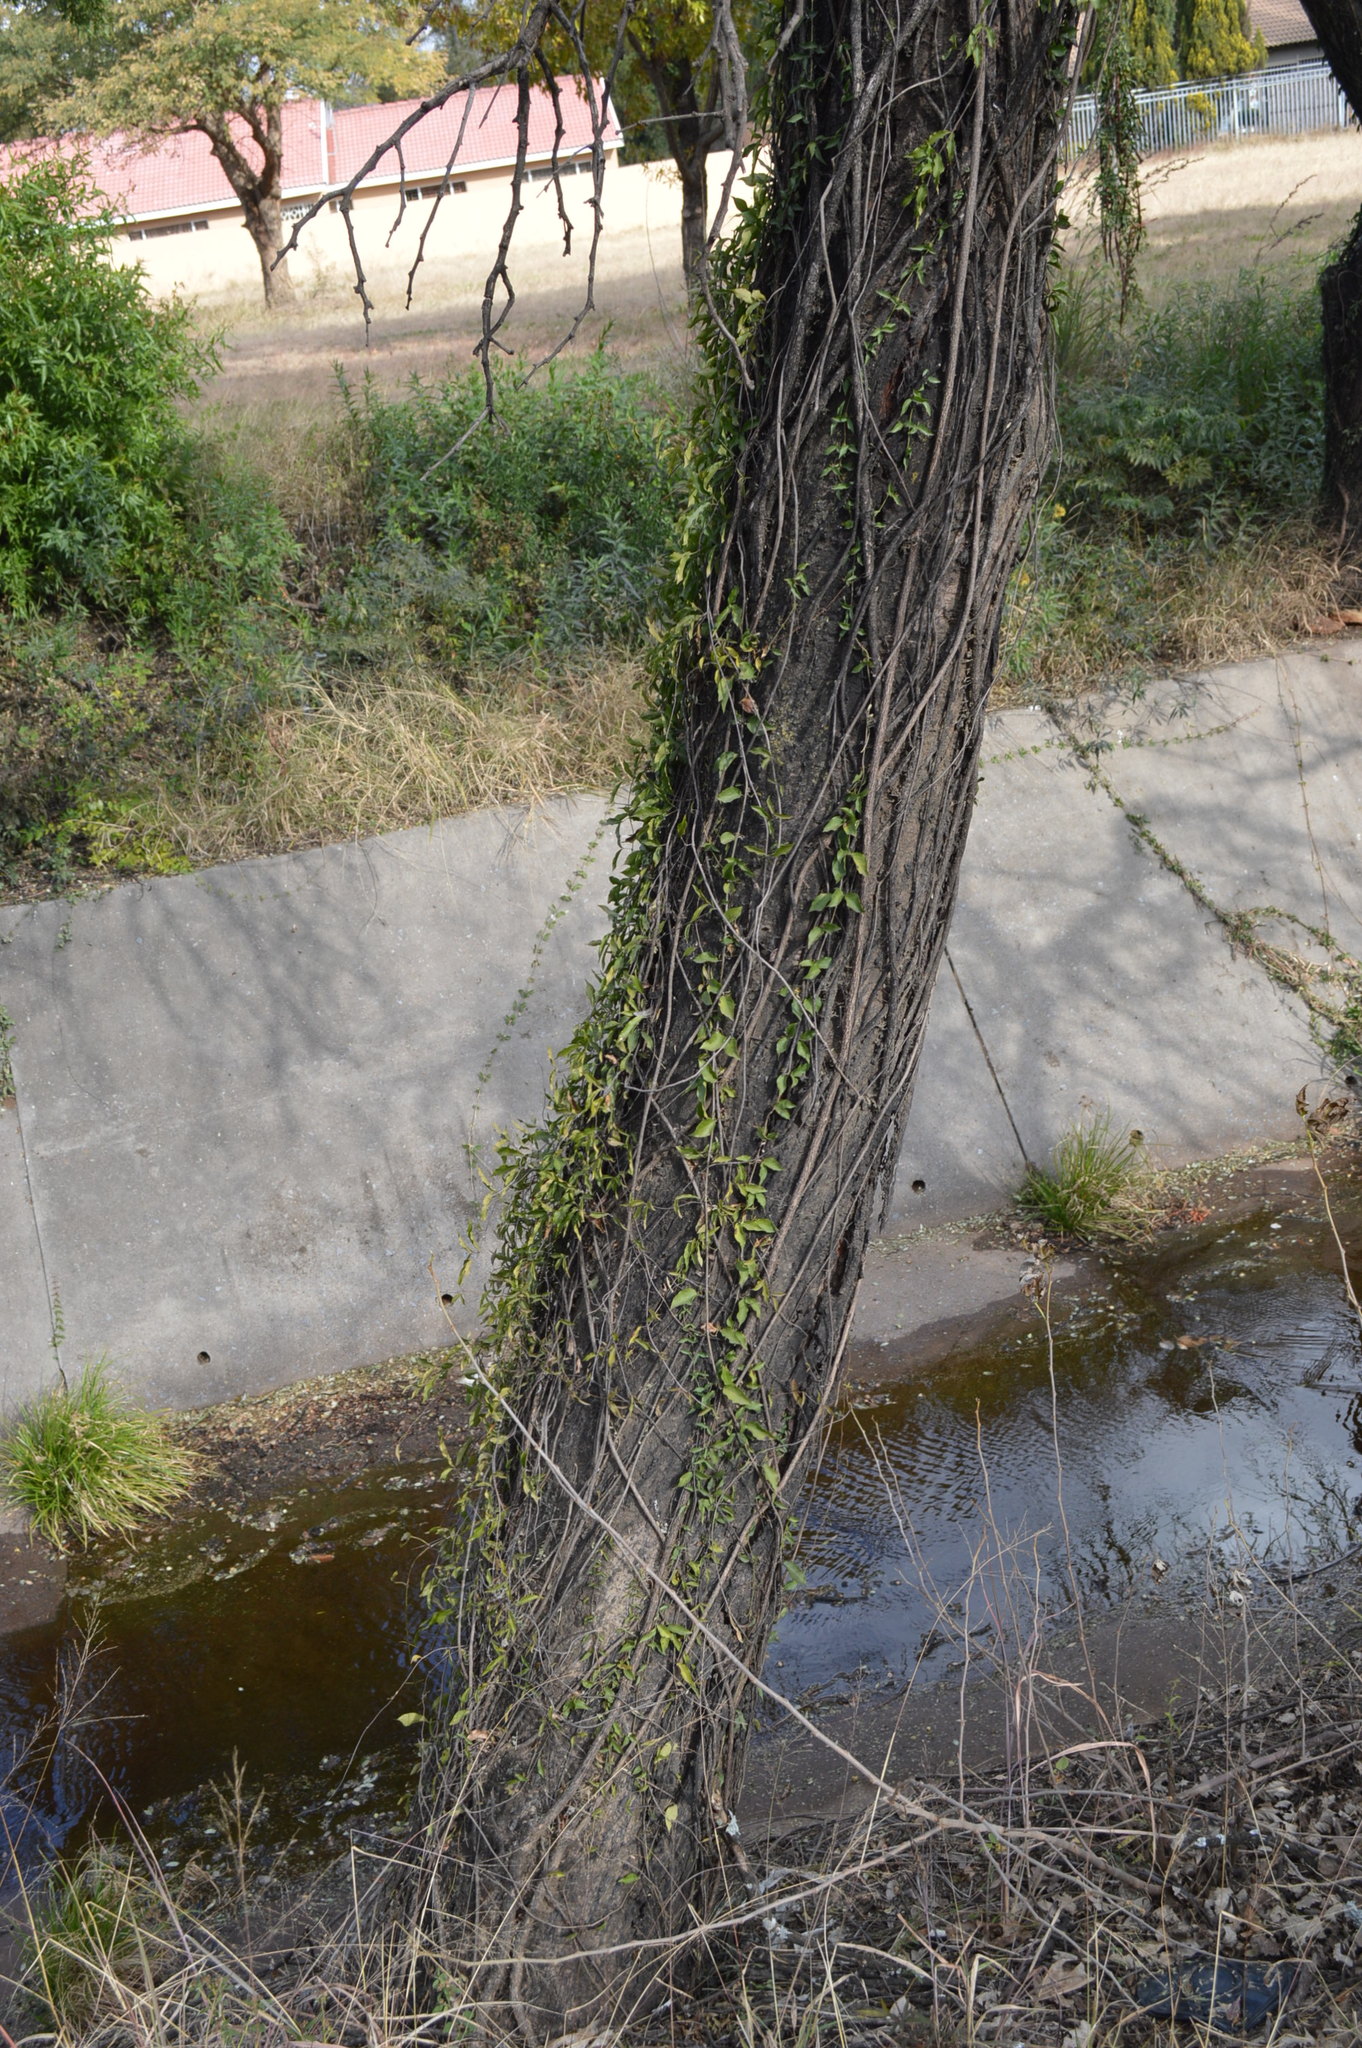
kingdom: Plantae
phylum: Tracheophyta
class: Magnoliopsida
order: Lamiales
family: Bignoniaceae
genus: Dolichandra
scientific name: Dolichandra unguis-cati
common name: Catclaw vine
